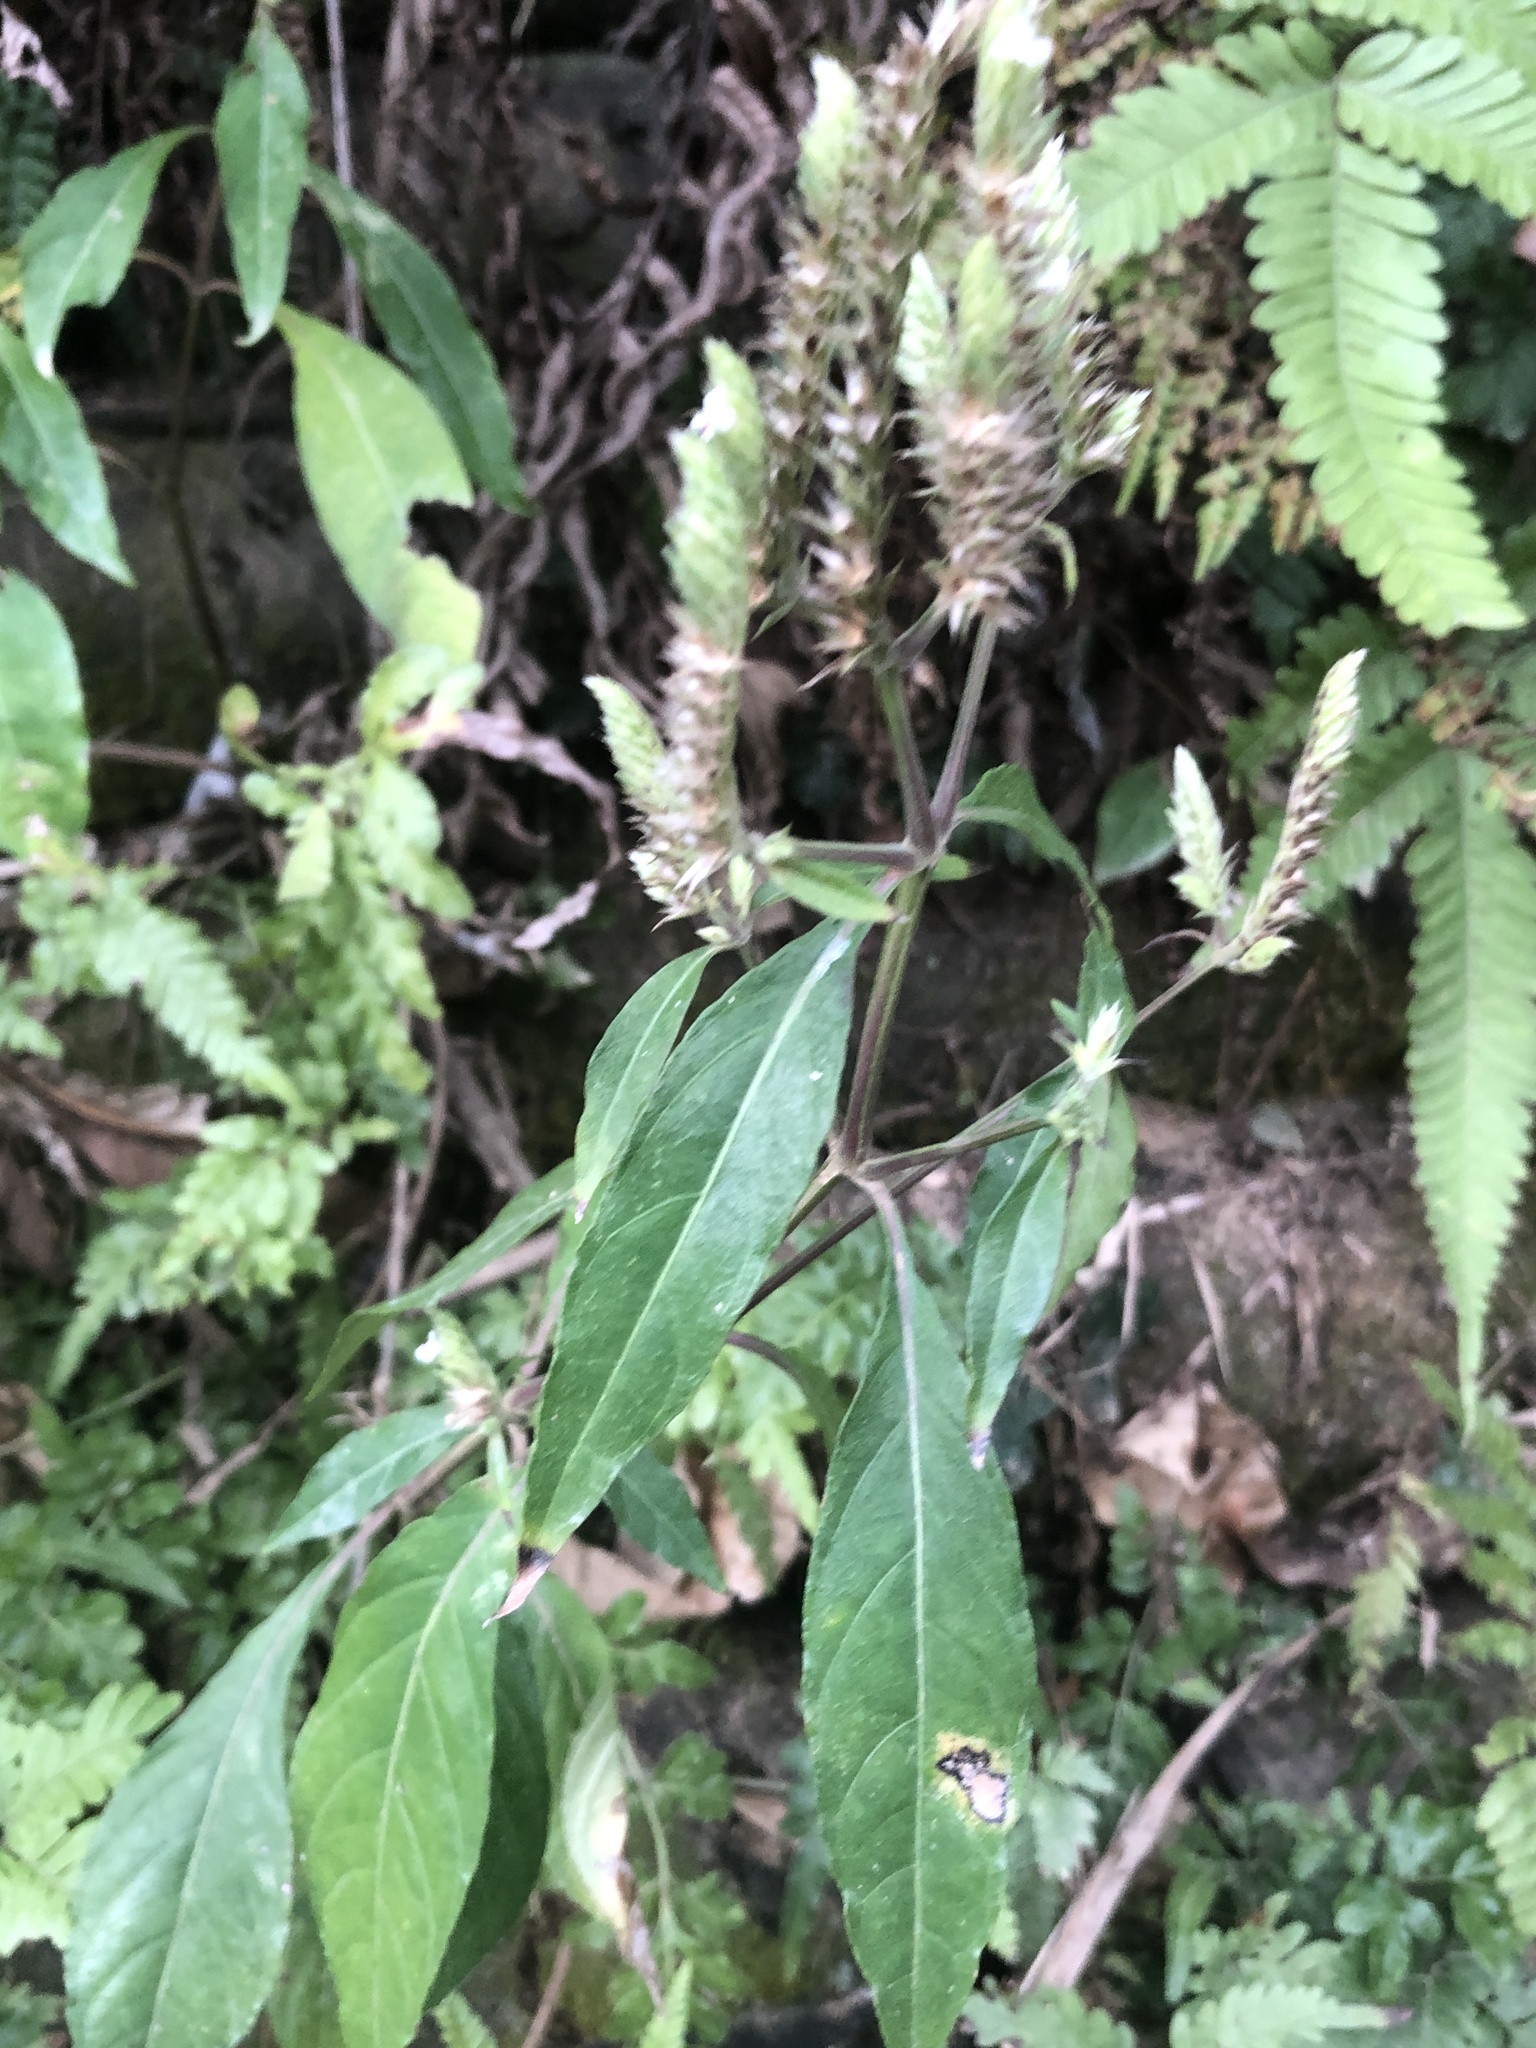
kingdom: Plantae
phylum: Tracheophyta
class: Magnoliopsida
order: Lamiales
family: Acanthaceae
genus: Lepidagathis
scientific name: Lepidagathis formosensis
